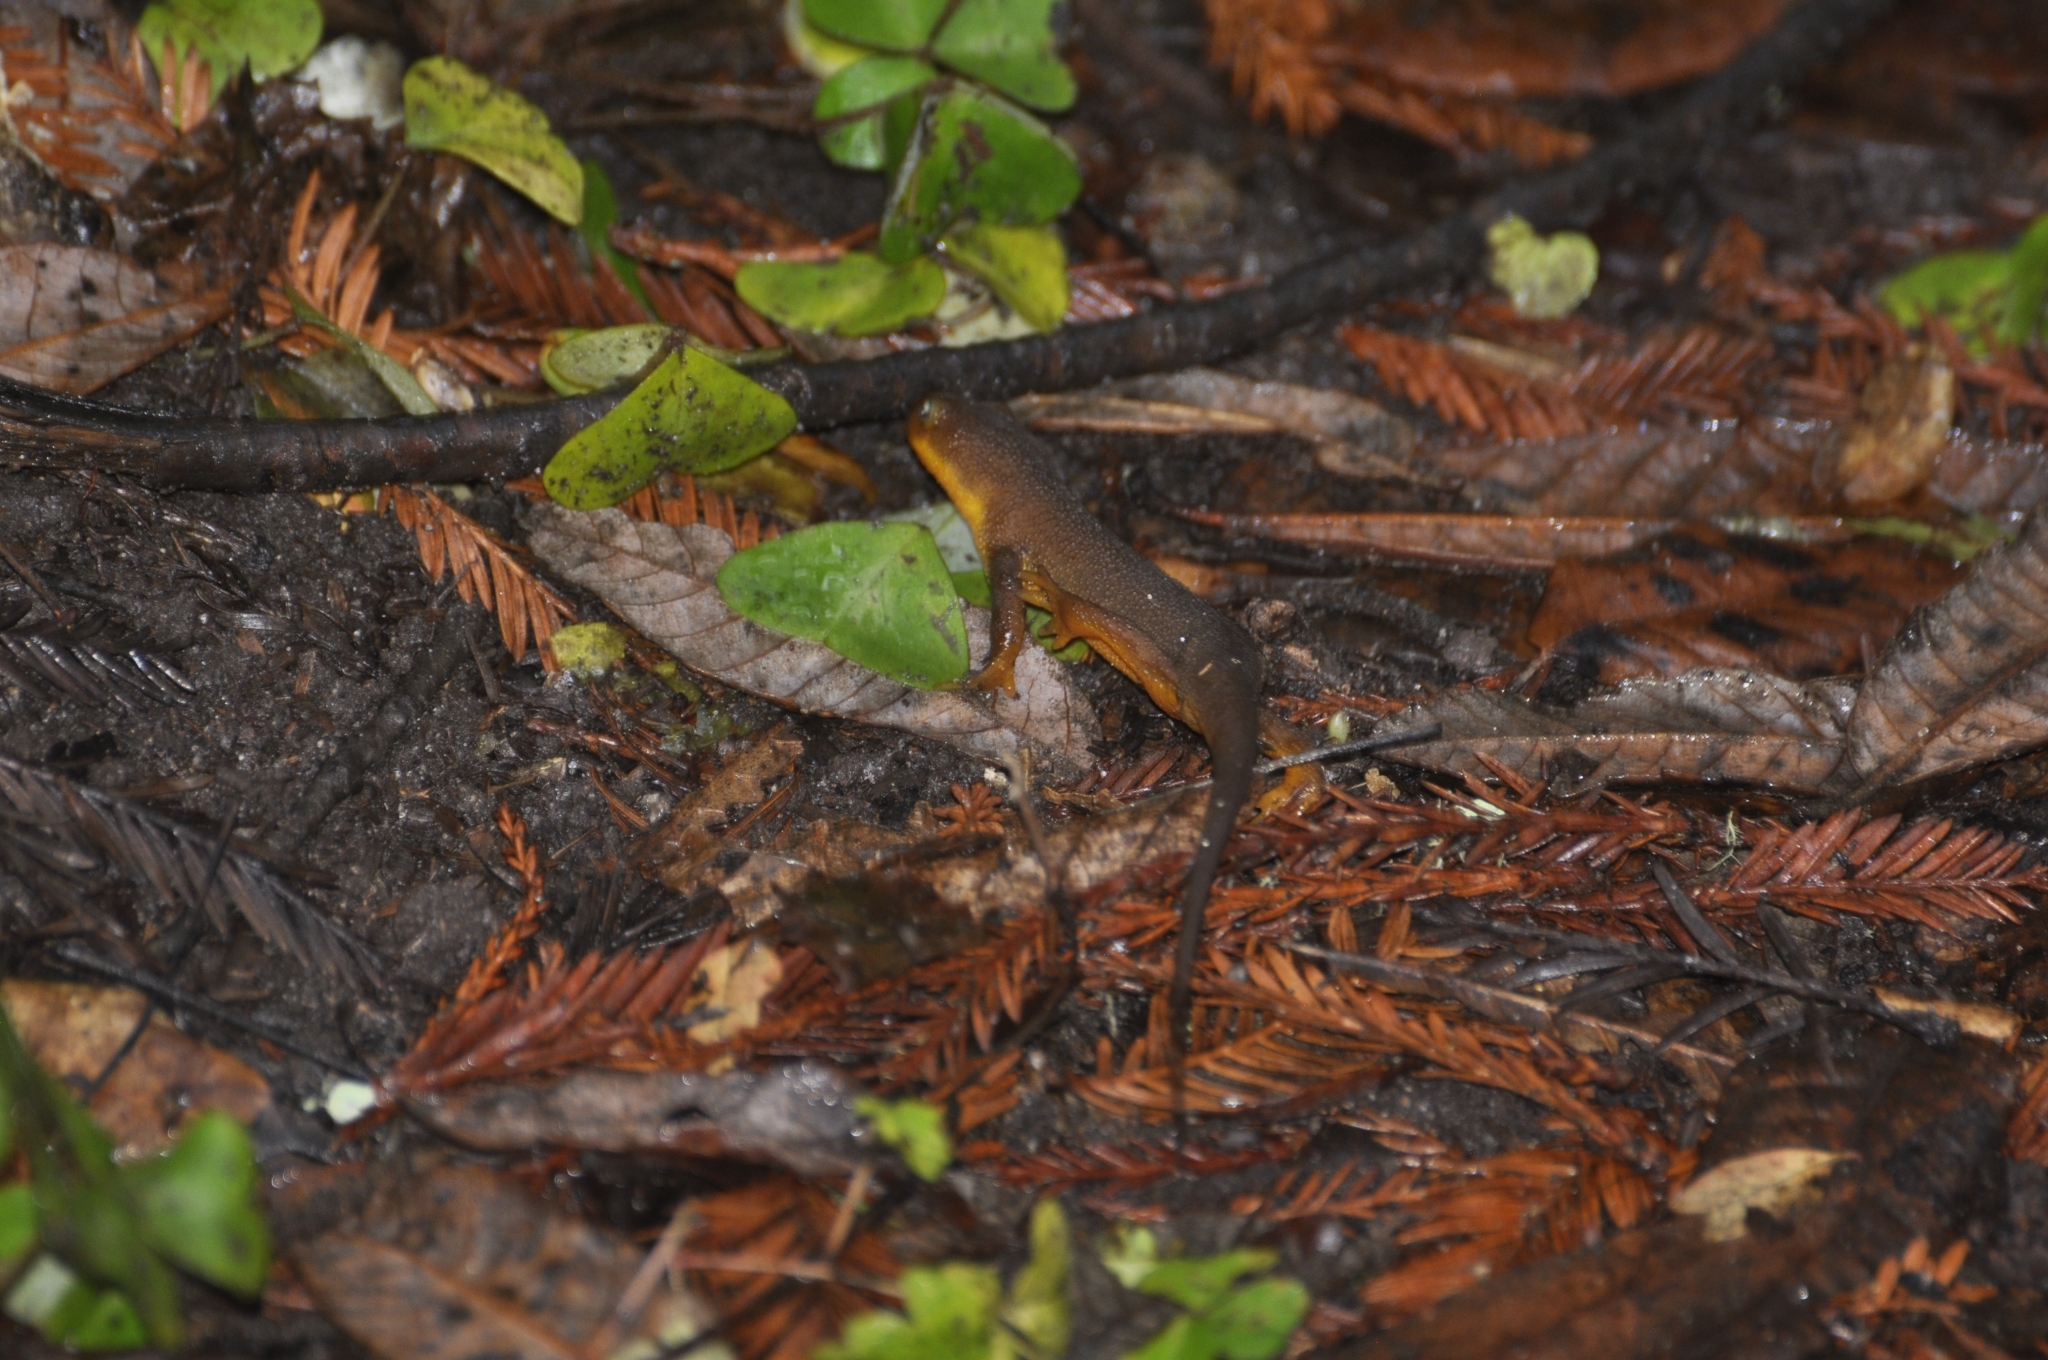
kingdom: Animalia
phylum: Chordata
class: Amphibia
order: Caudata
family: Salamandridae
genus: Taricha
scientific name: Taricha torosa
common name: California newt
